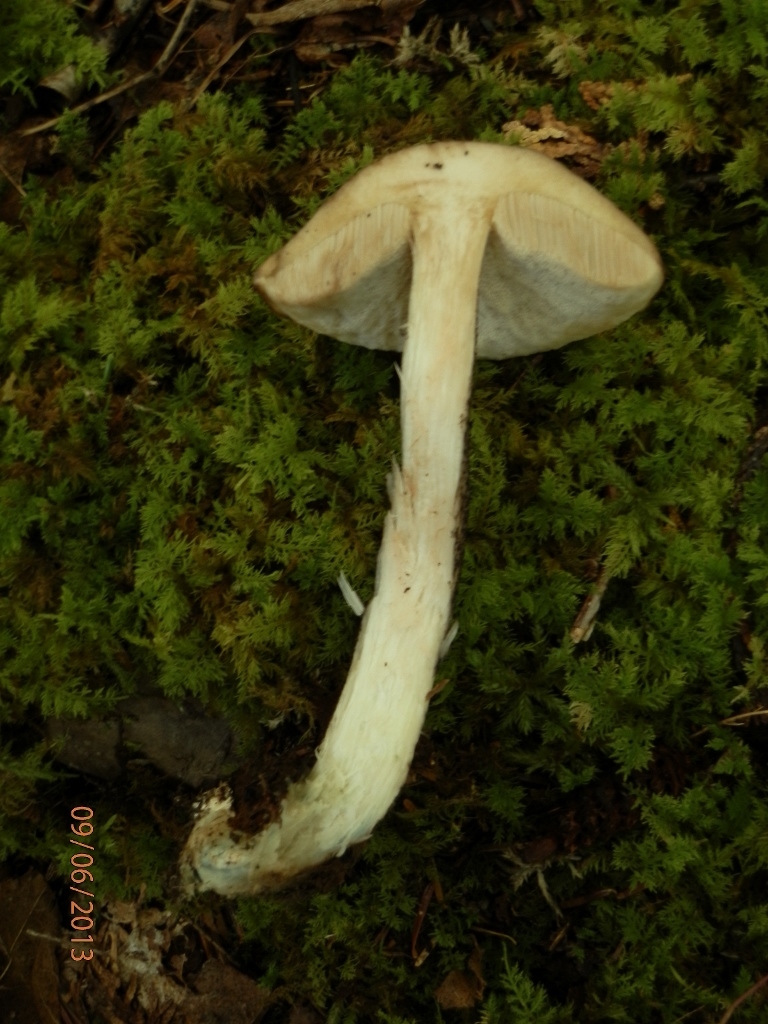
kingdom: Fungi
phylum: Basidiomycota
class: Agaricomycetes
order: Boletales
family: Boletaceae
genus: Leccinum
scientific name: Leccinum snellii
